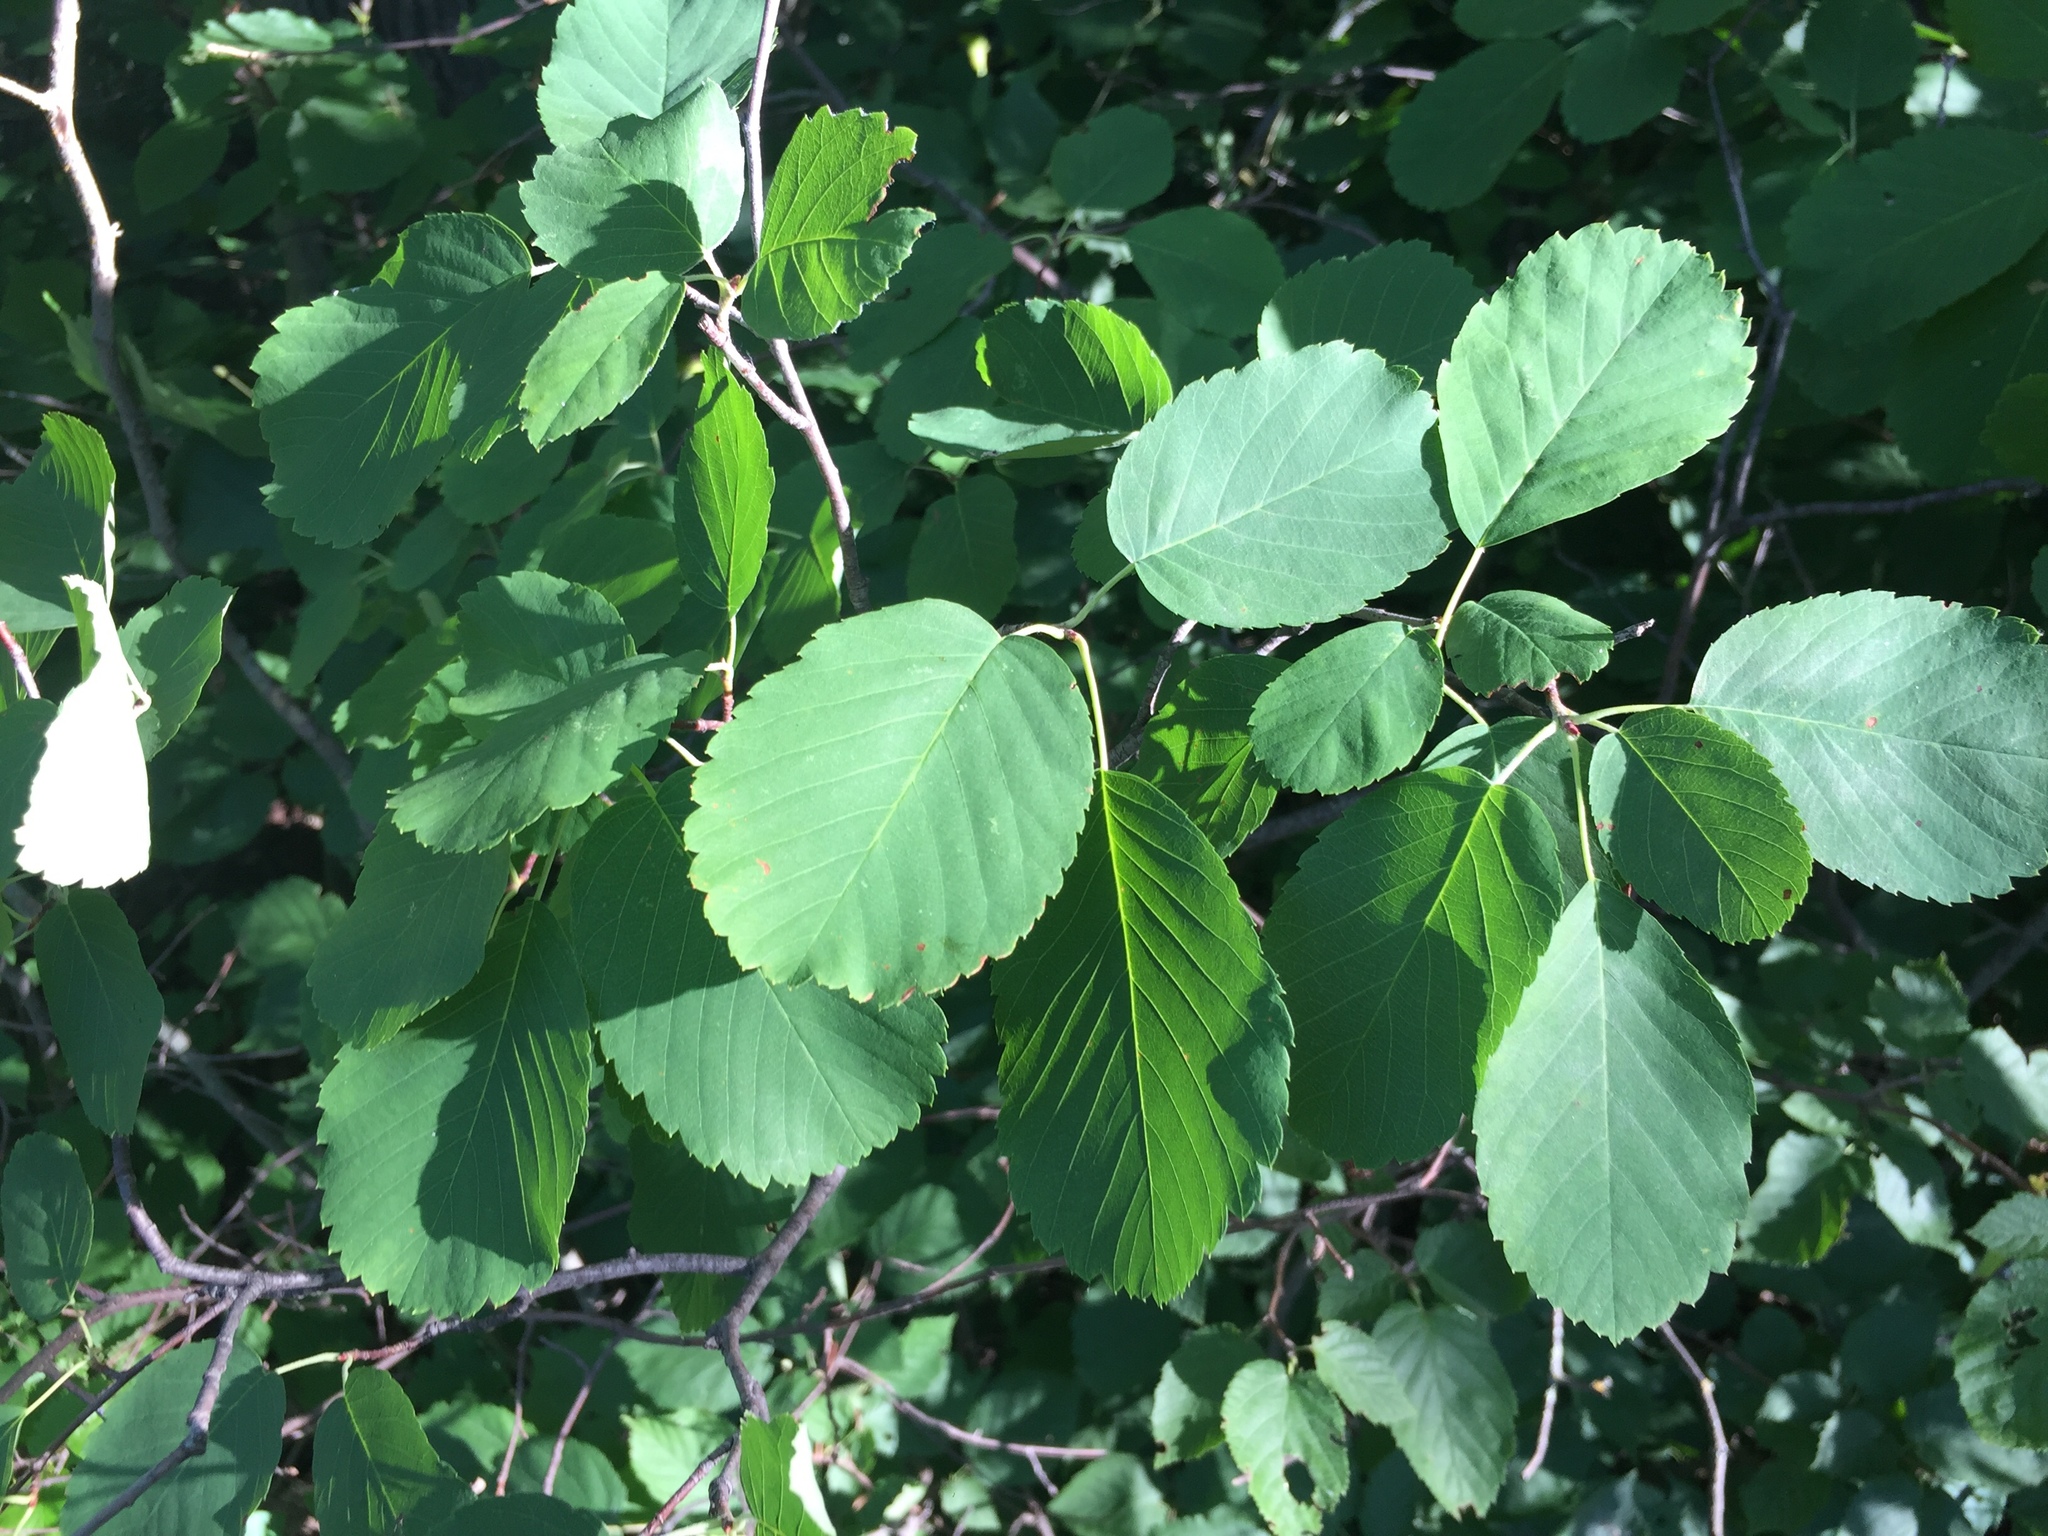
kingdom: Plantae
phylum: Tracheophyta
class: Magnoliopsida
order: Rosales
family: Rosaceae
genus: Amelanchier
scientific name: Amelanchier alnifolia
